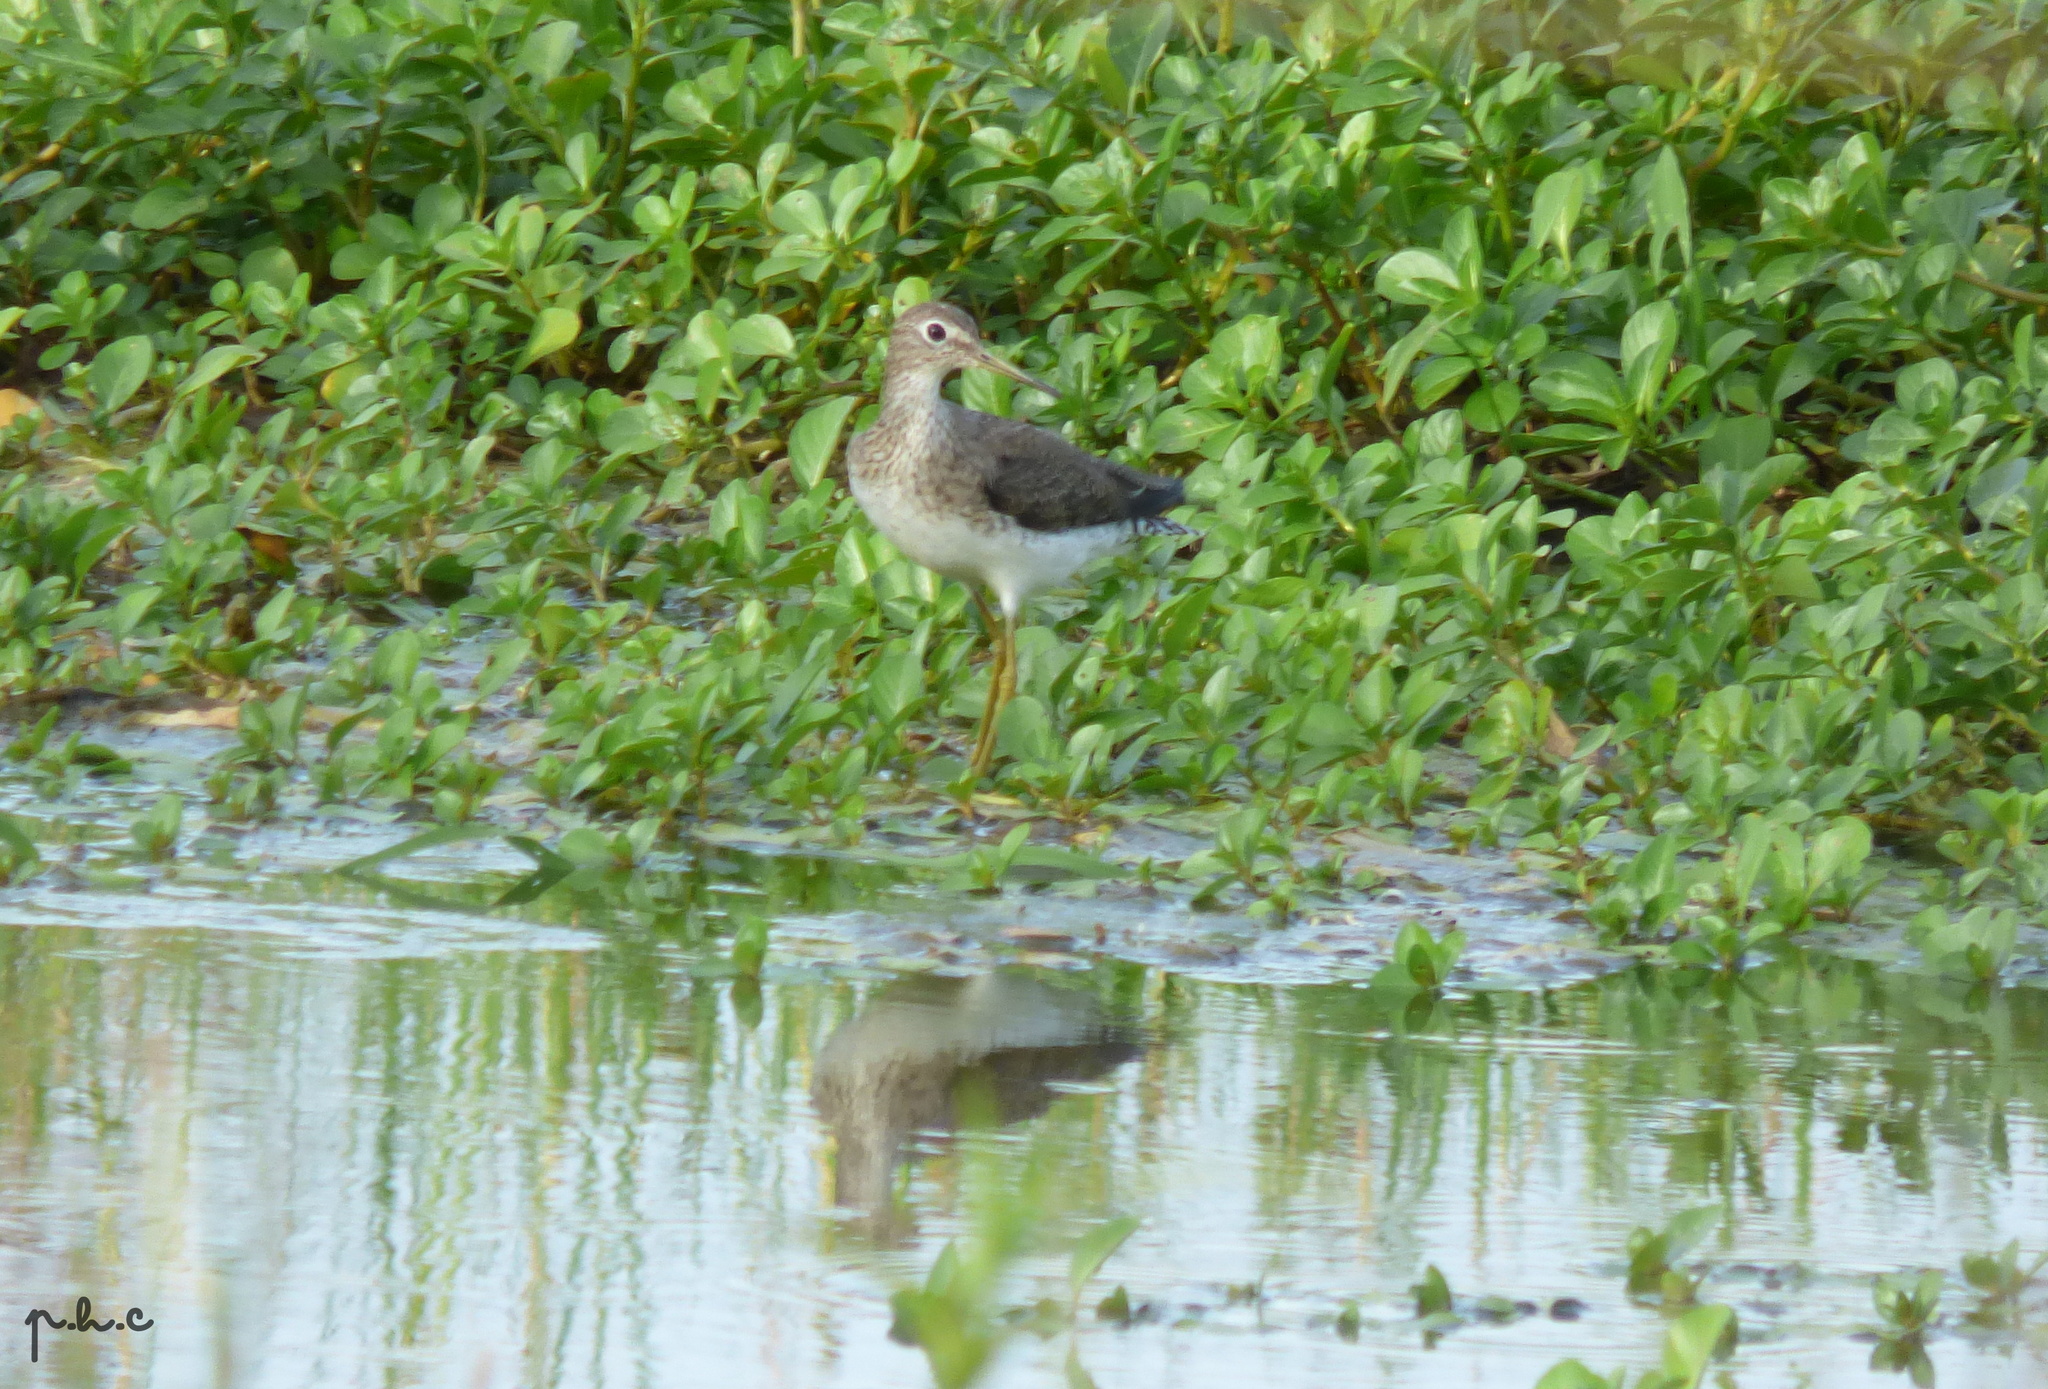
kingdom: Animalia
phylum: Chordata
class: Aves
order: Charadriiformes
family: Scolopacidae
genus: Tringa
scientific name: Tringa solitaria
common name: Solitary sandpiper
